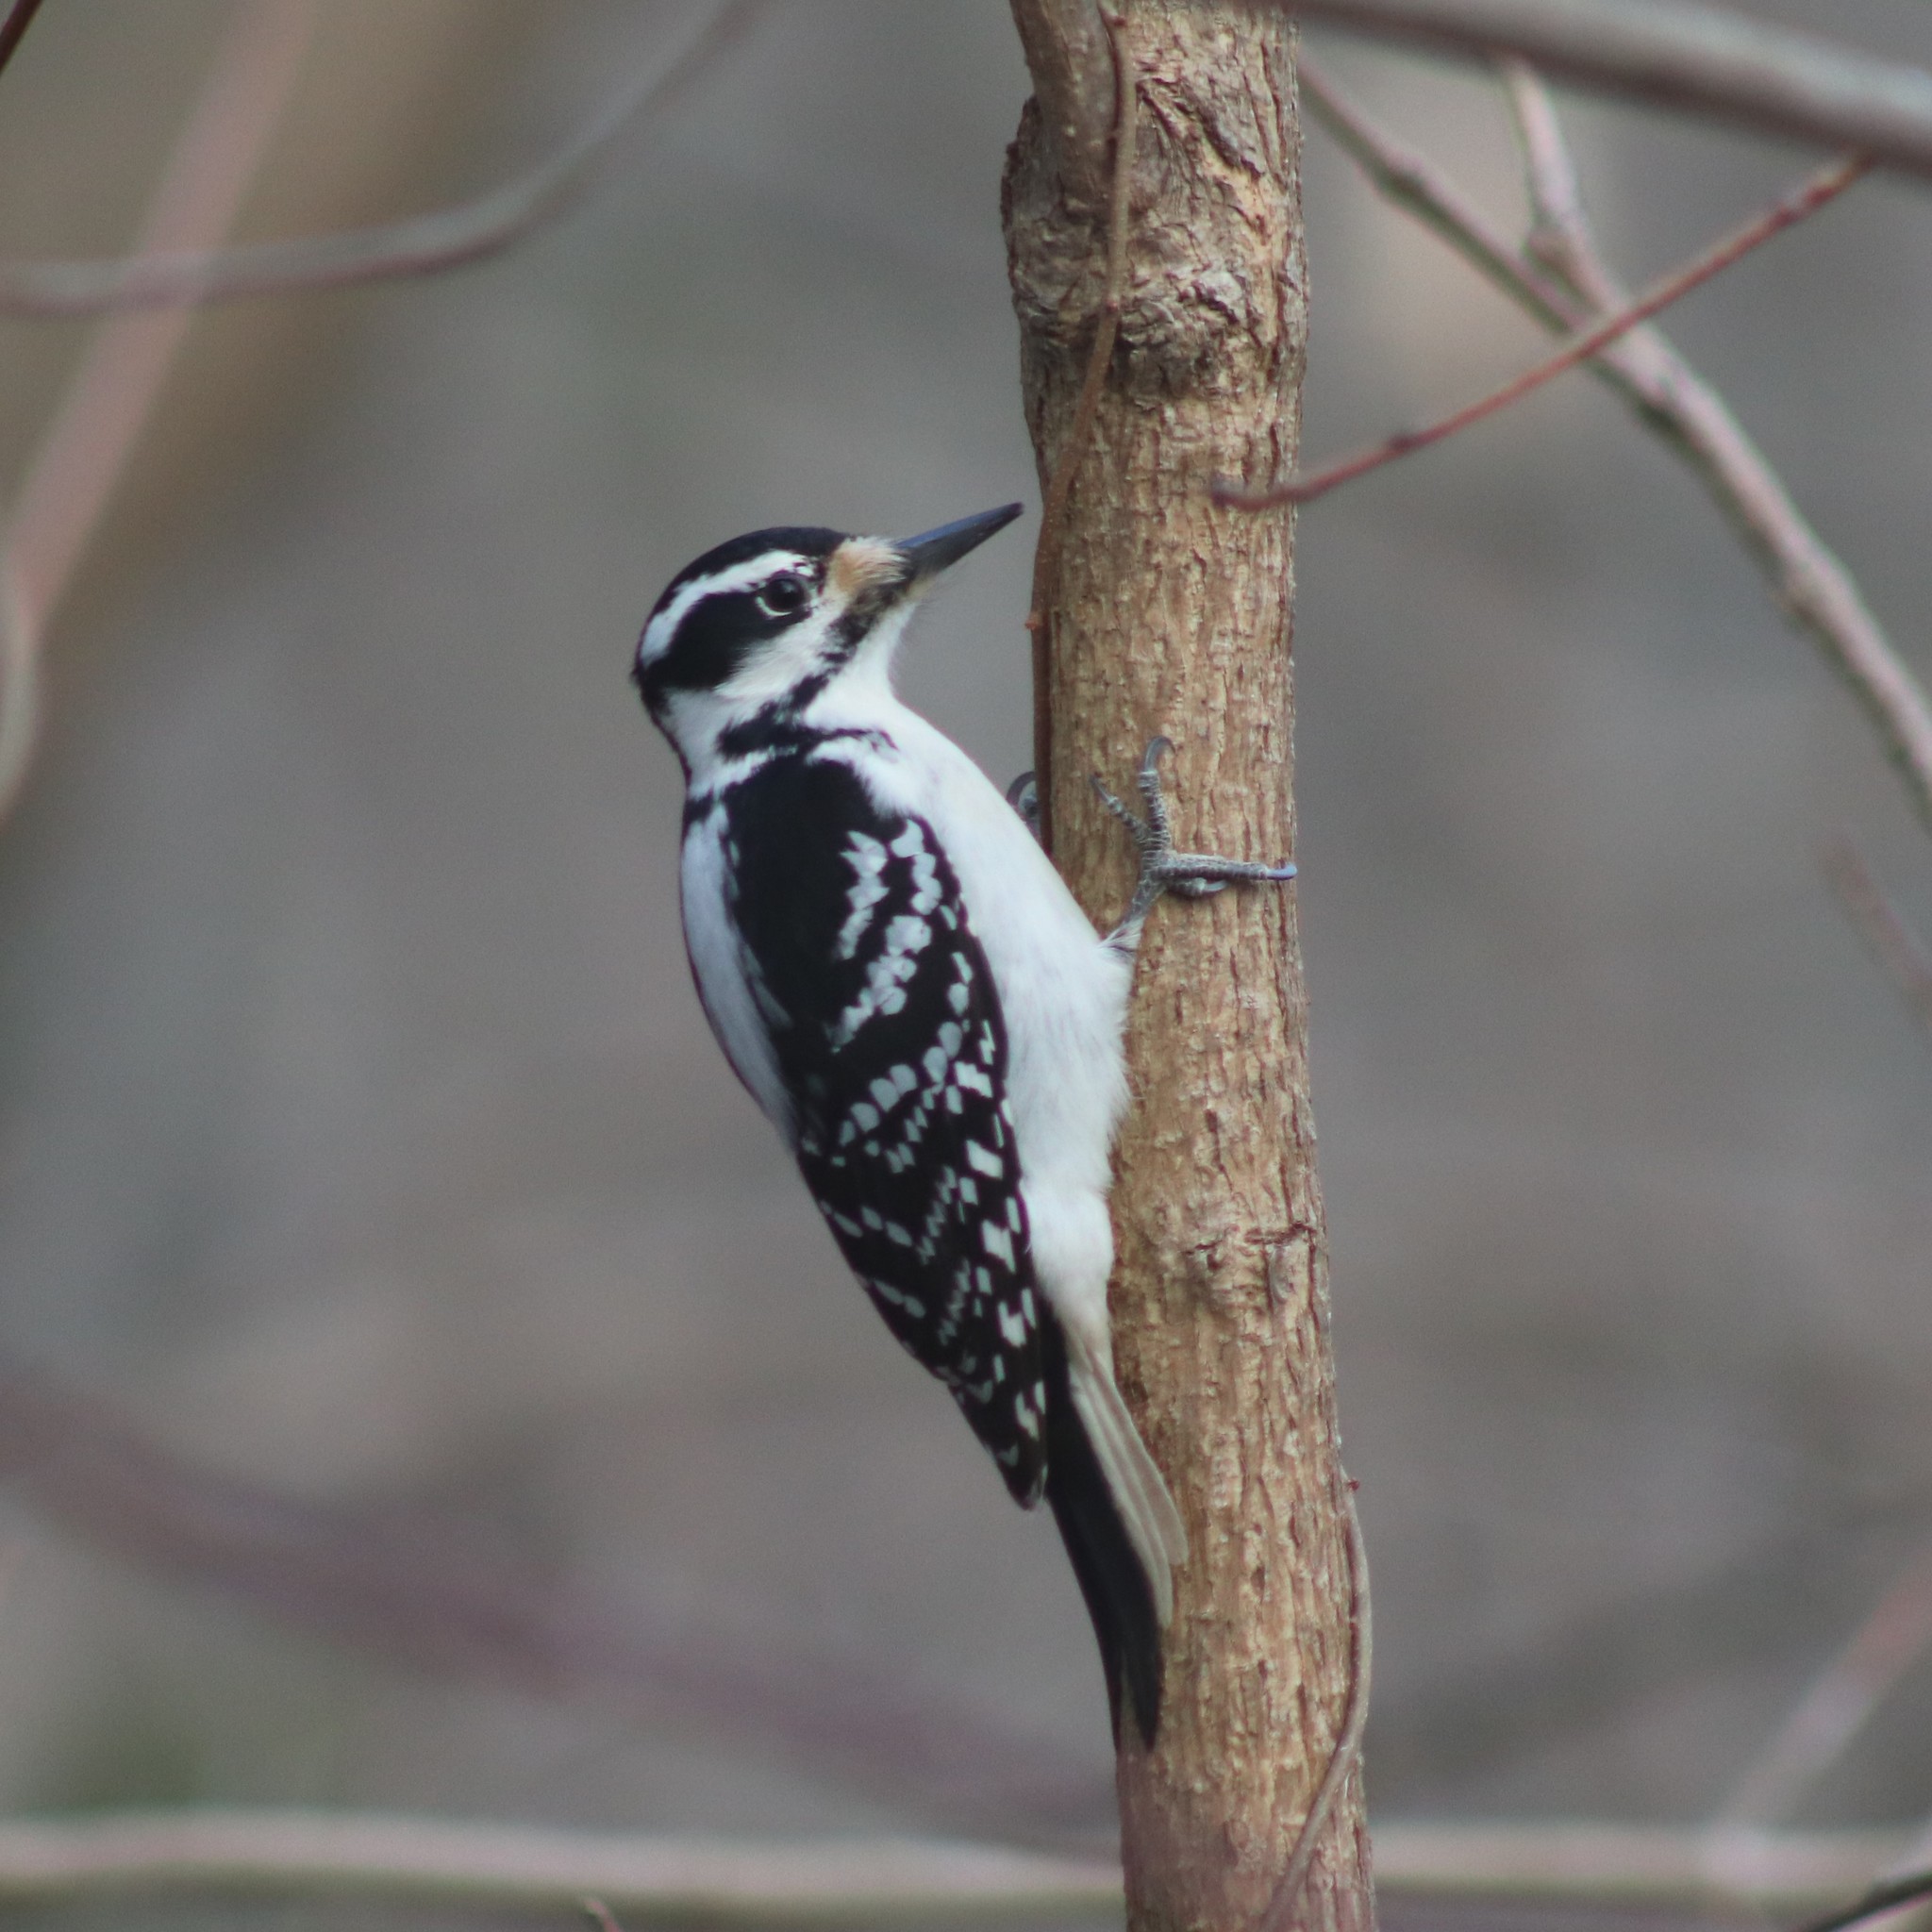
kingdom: Animalia
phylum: Chordata
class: Aves
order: Piciformes
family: Picidae
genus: Leuconotopicus
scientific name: Leuconotopicus villosus
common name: Hairy woodpecker
